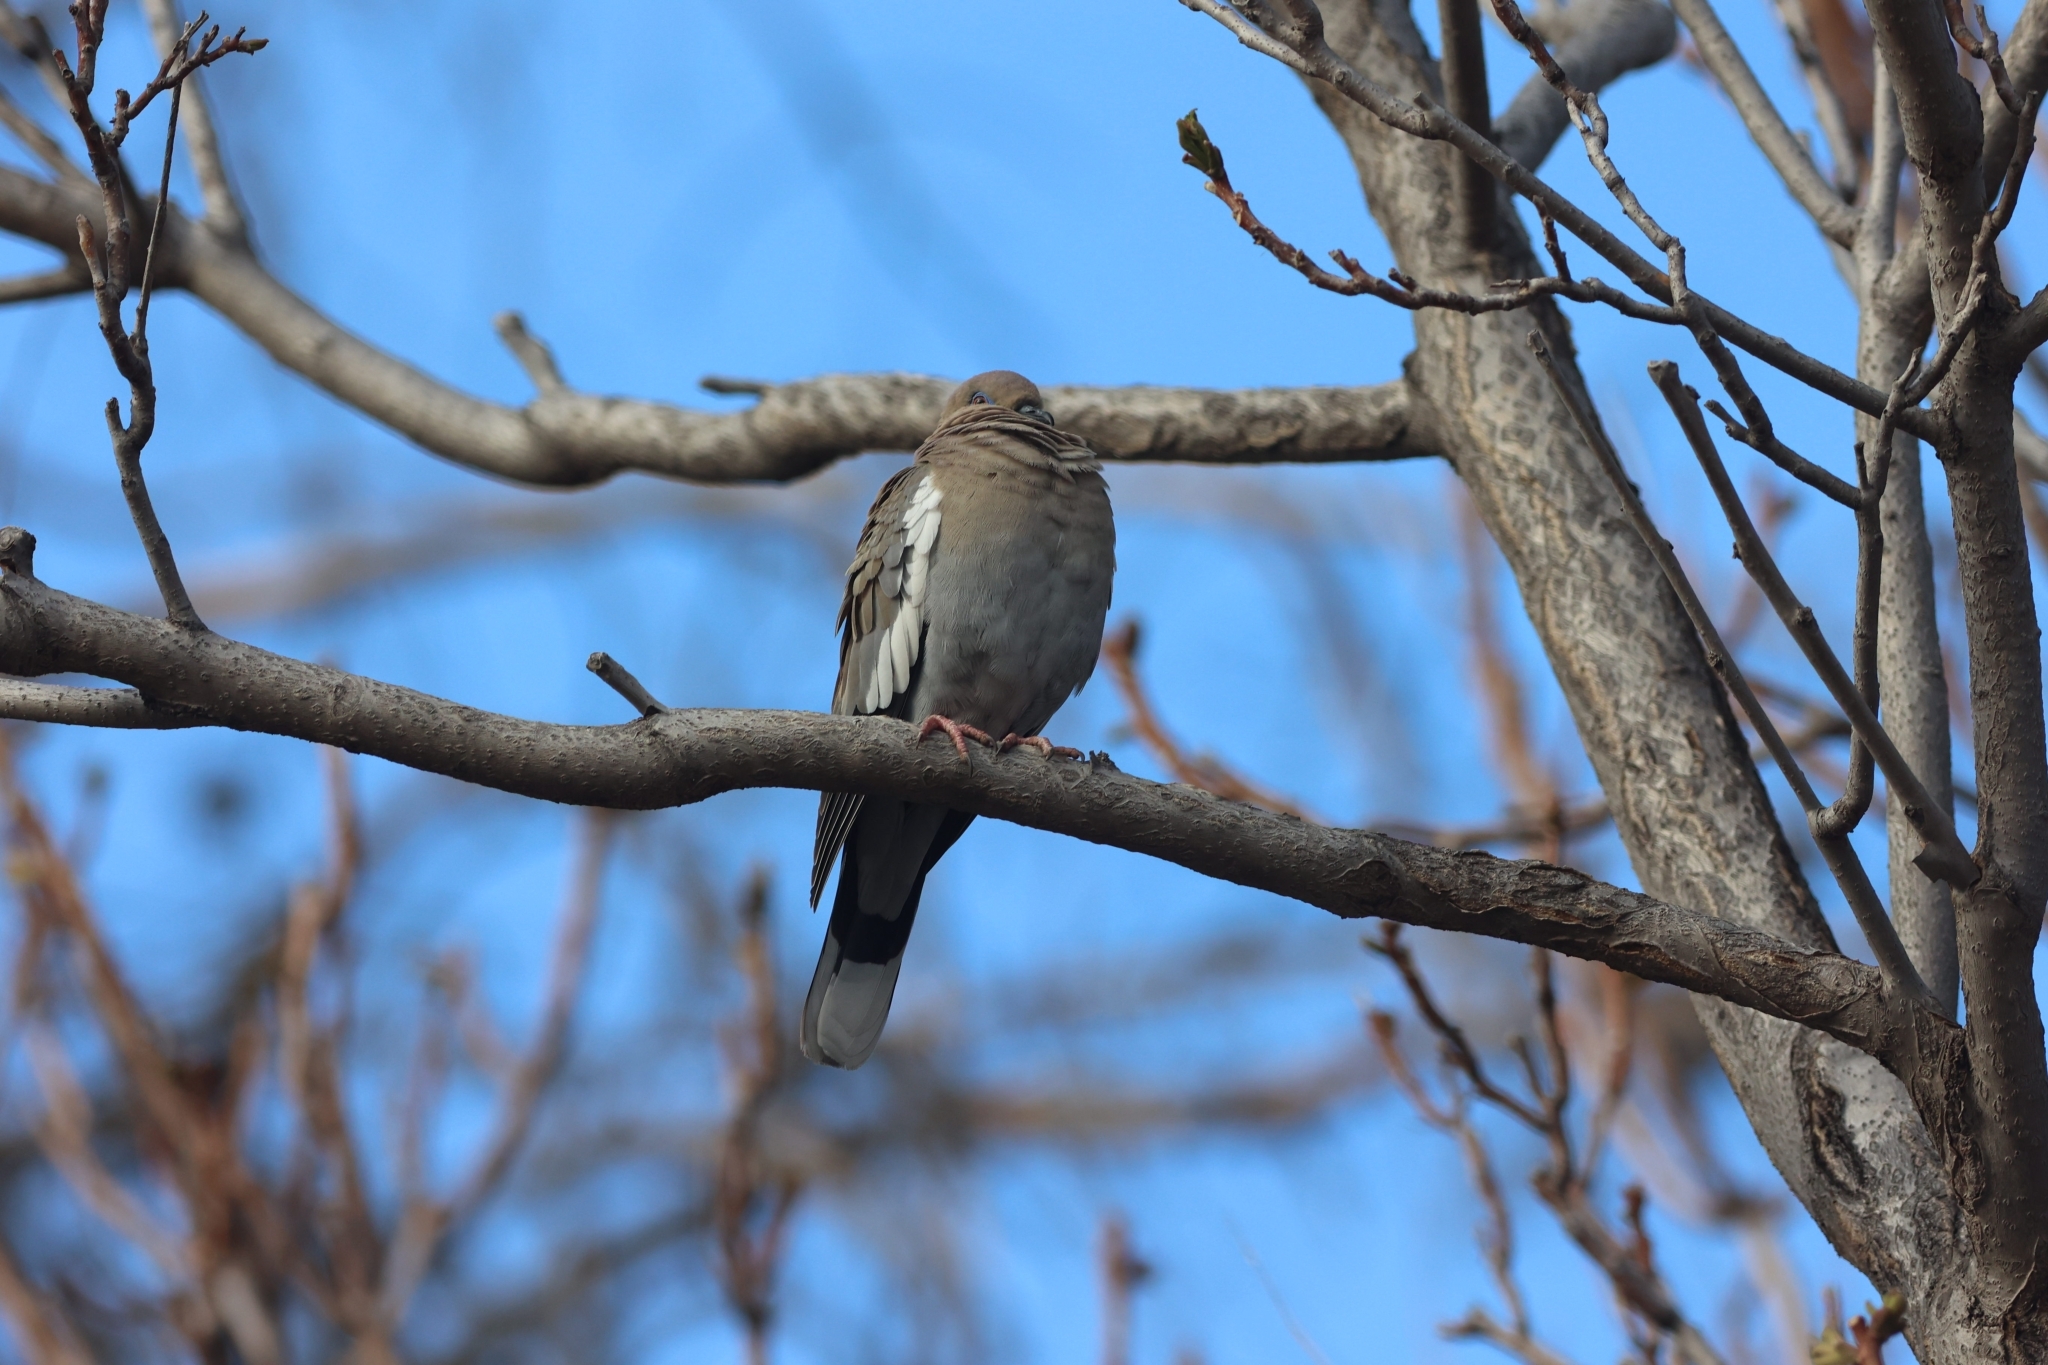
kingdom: Animalia
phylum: Chordata
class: Aves
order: Columbiformes
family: Columbidae
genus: Zenaida
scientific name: Zenaida asiatica
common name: White-winged dove
